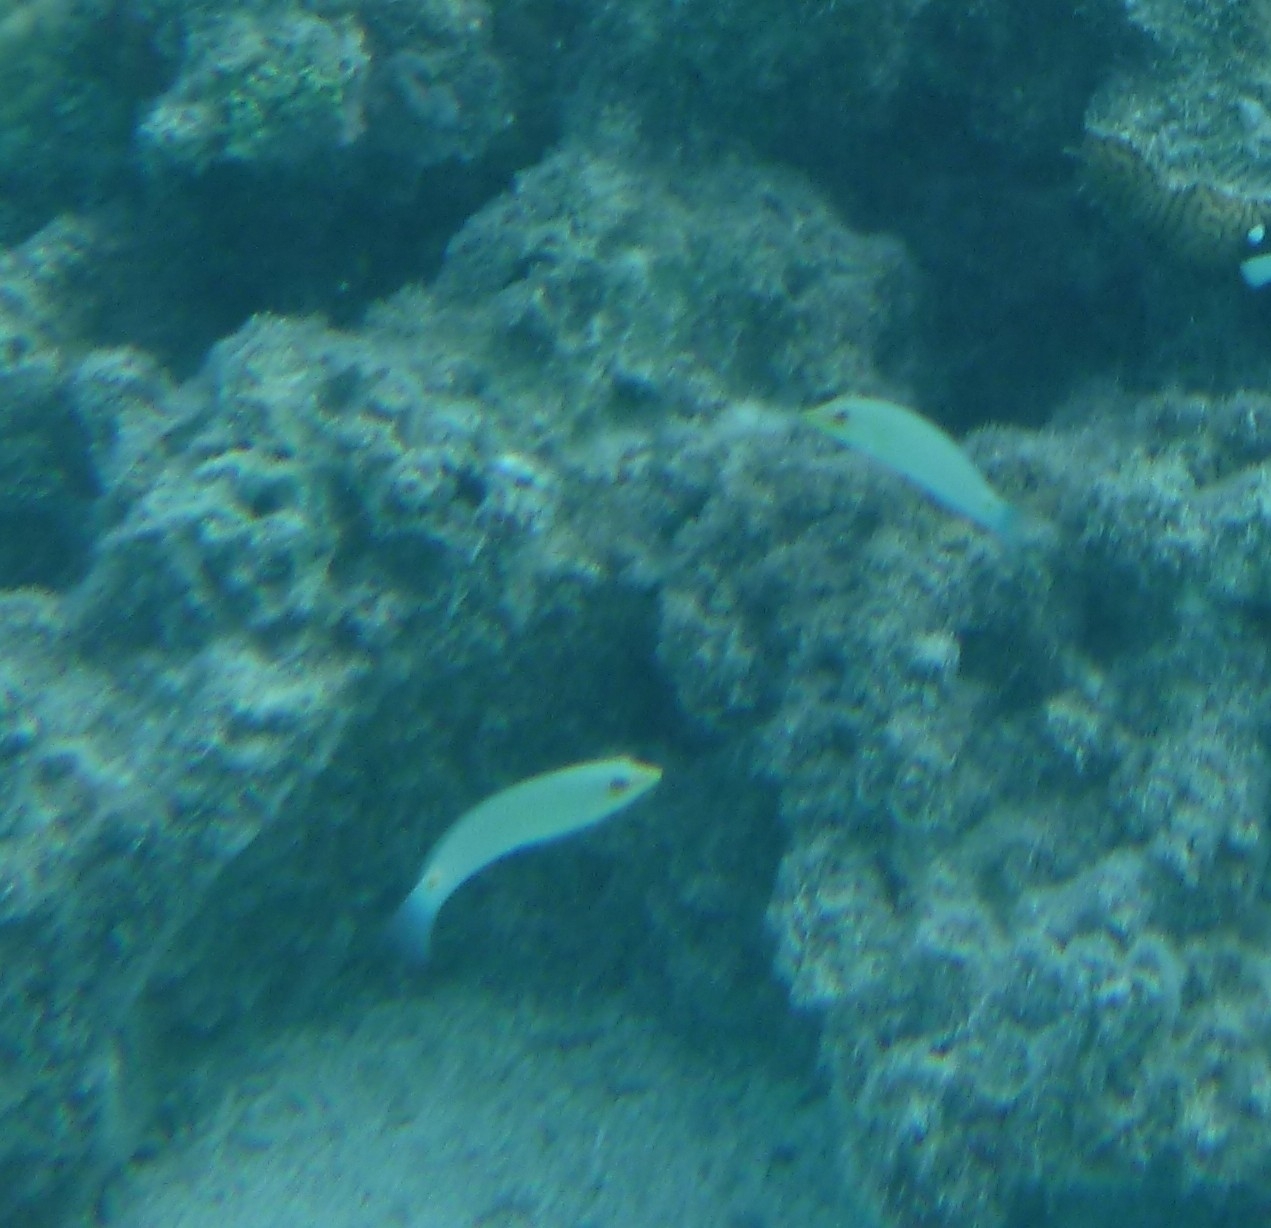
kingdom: Animalia
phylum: Chordata
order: Perciformes
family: Labridae
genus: Halichoeres
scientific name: Halichoeres trimaculatus
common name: Three-spot wrasse
